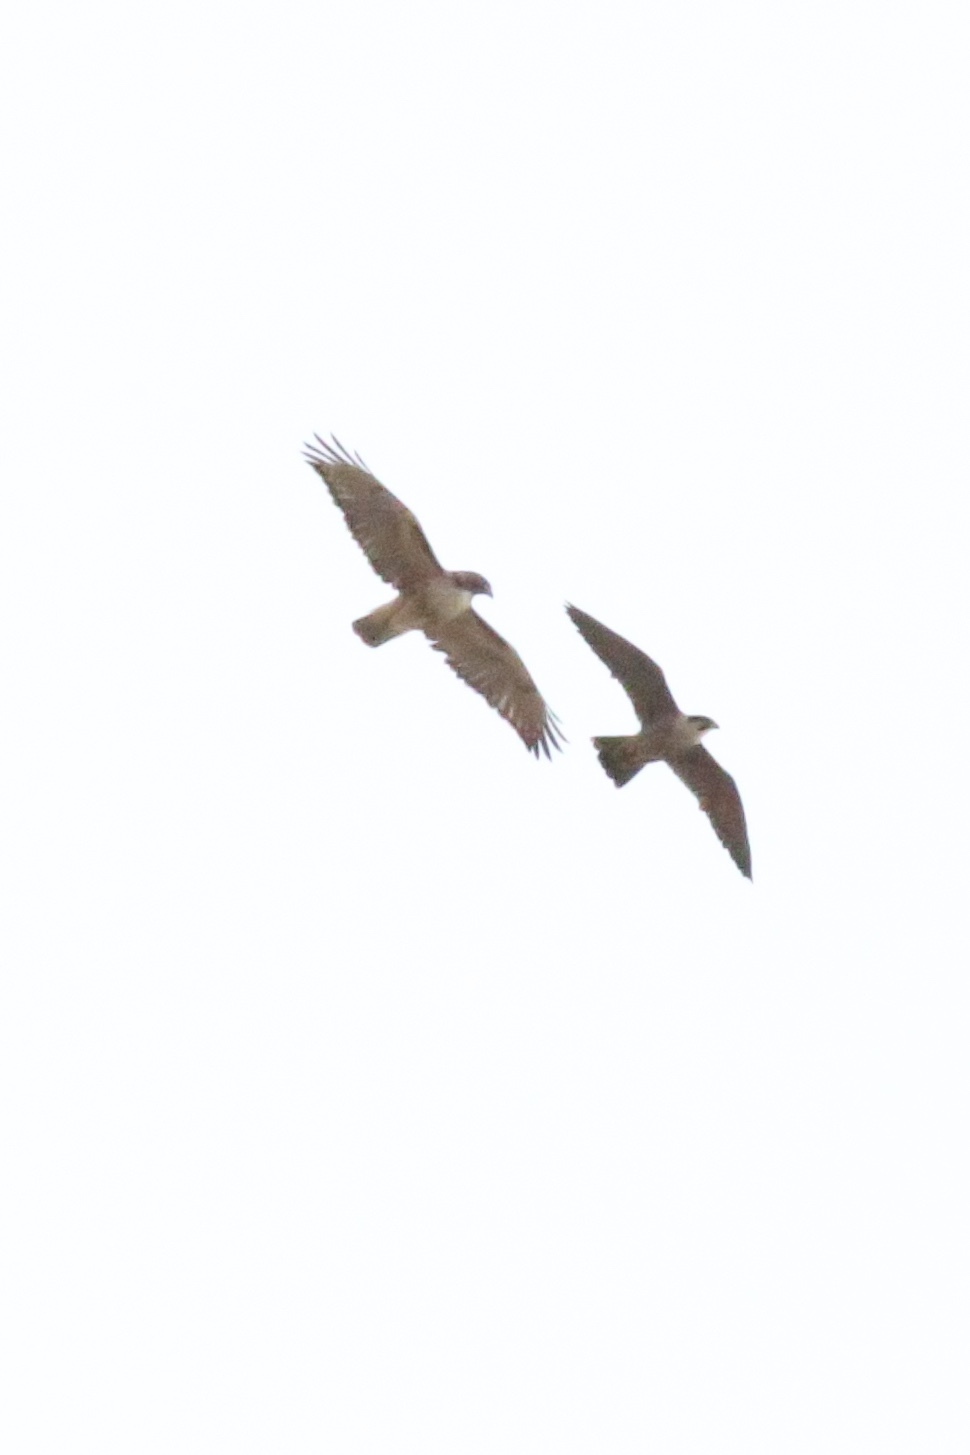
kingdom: Animalia
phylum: Chordata
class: Aves
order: Accipitriformes
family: Accipitridae
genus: Buteo
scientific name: Buteo jamaicensis
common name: Red-tailed hawk
